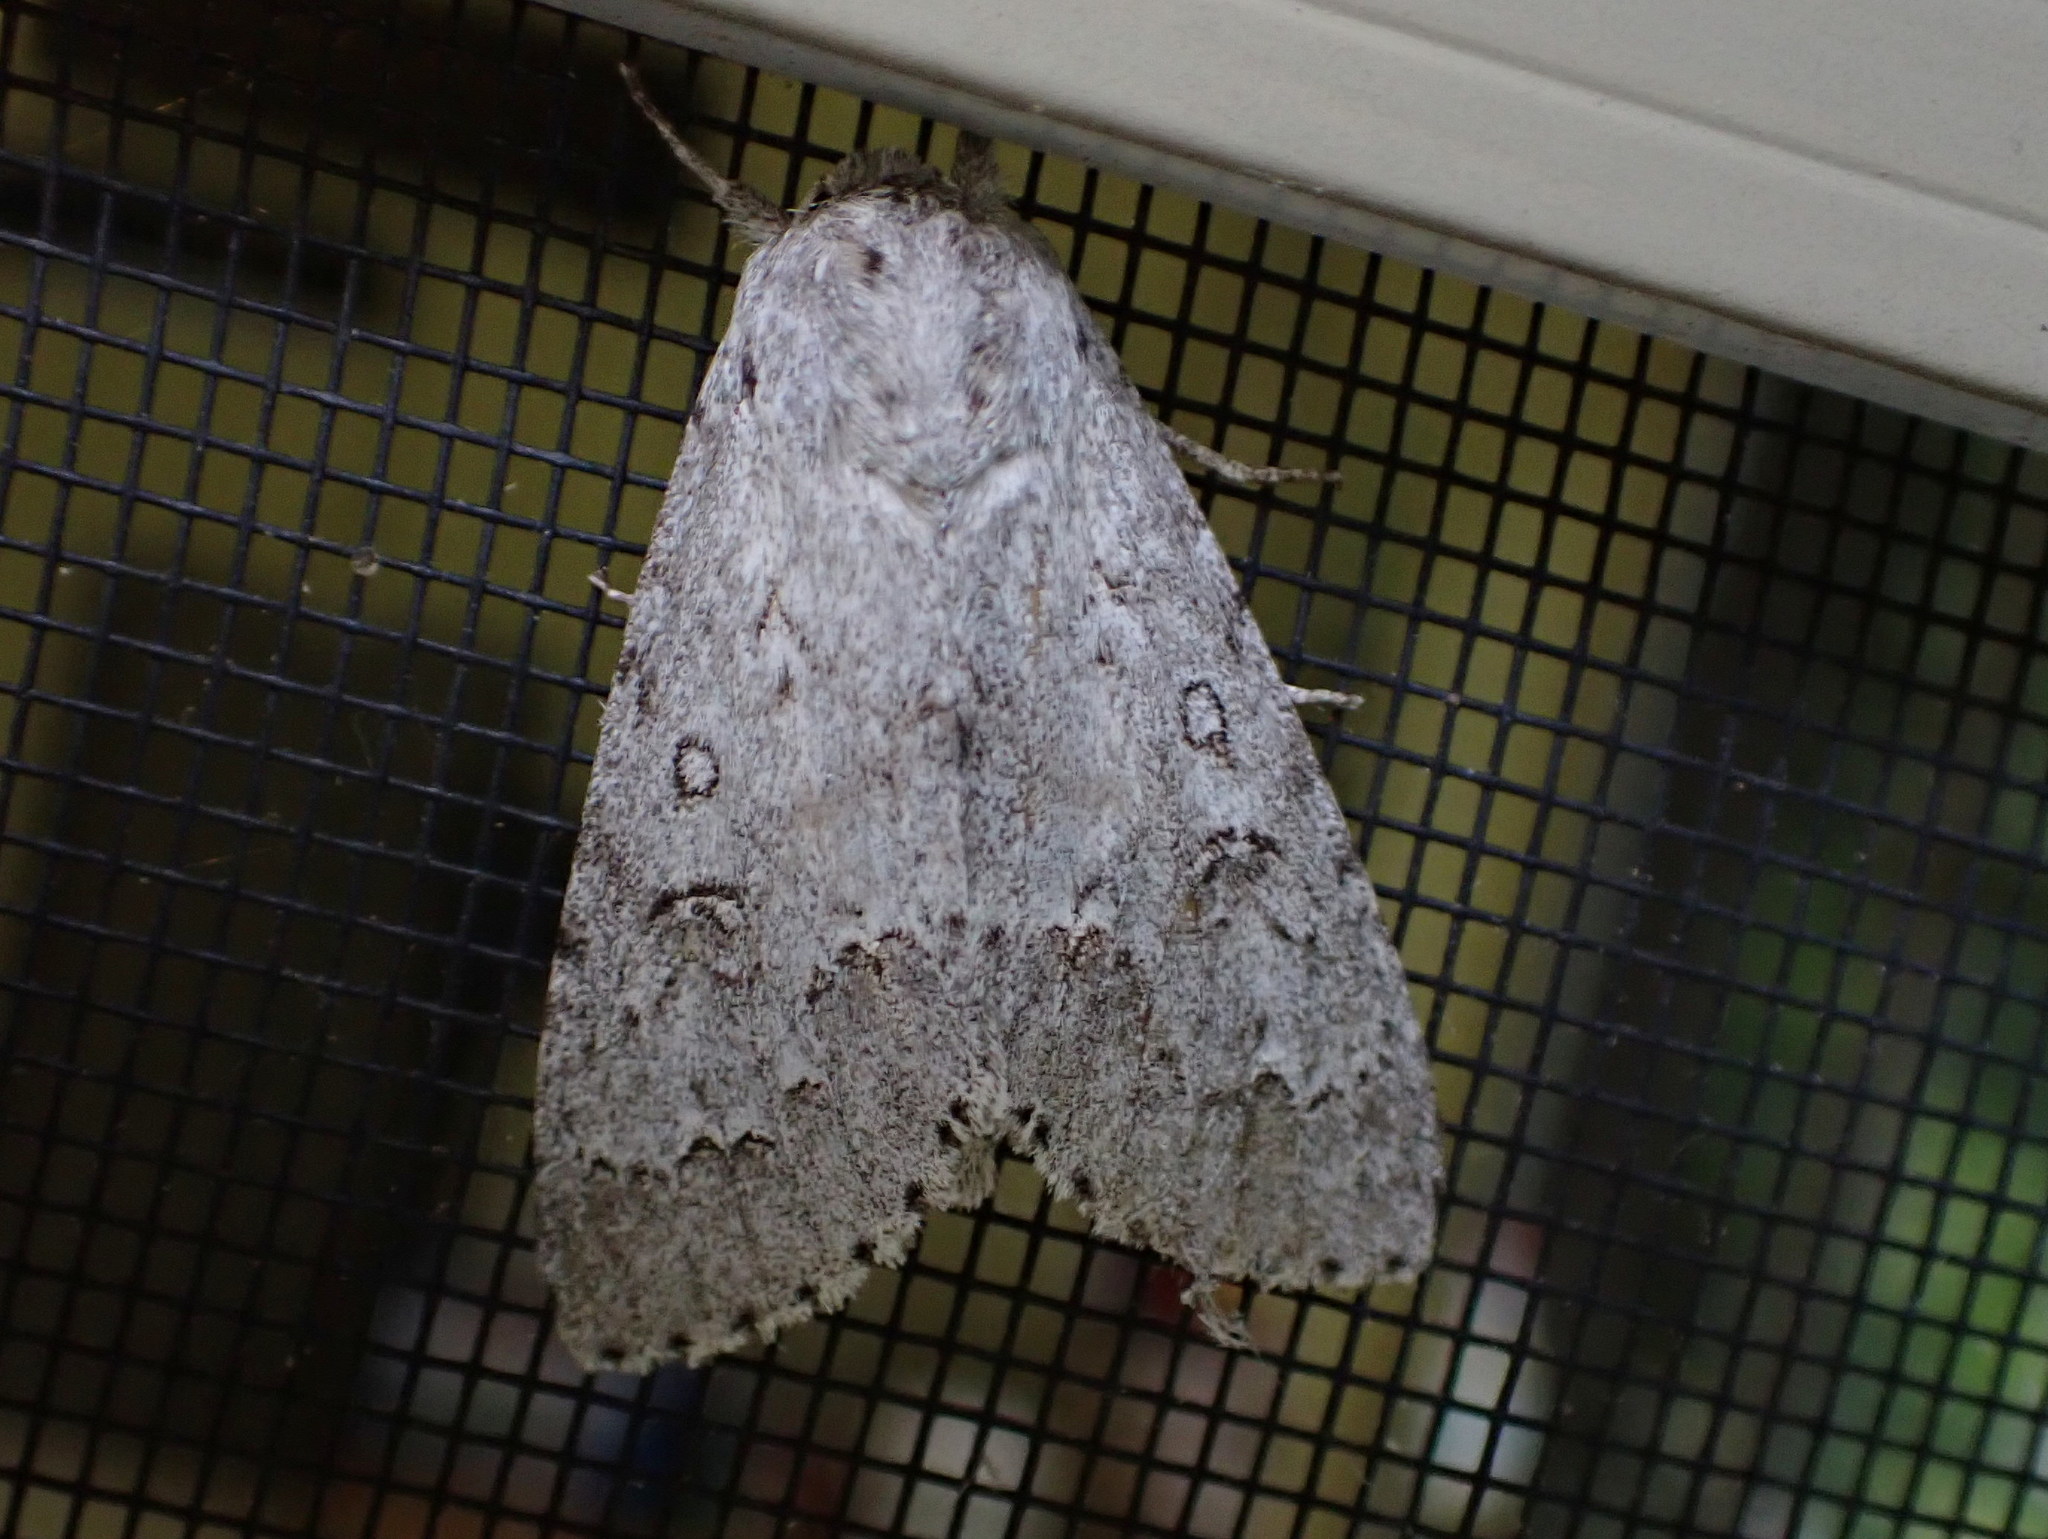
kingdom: Animalia
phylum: Arthropoda
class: Insecta
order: Lepidoptera
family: Noctuidae
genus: Acronicta
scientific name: Acronicta insita
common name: Large gray dagger
